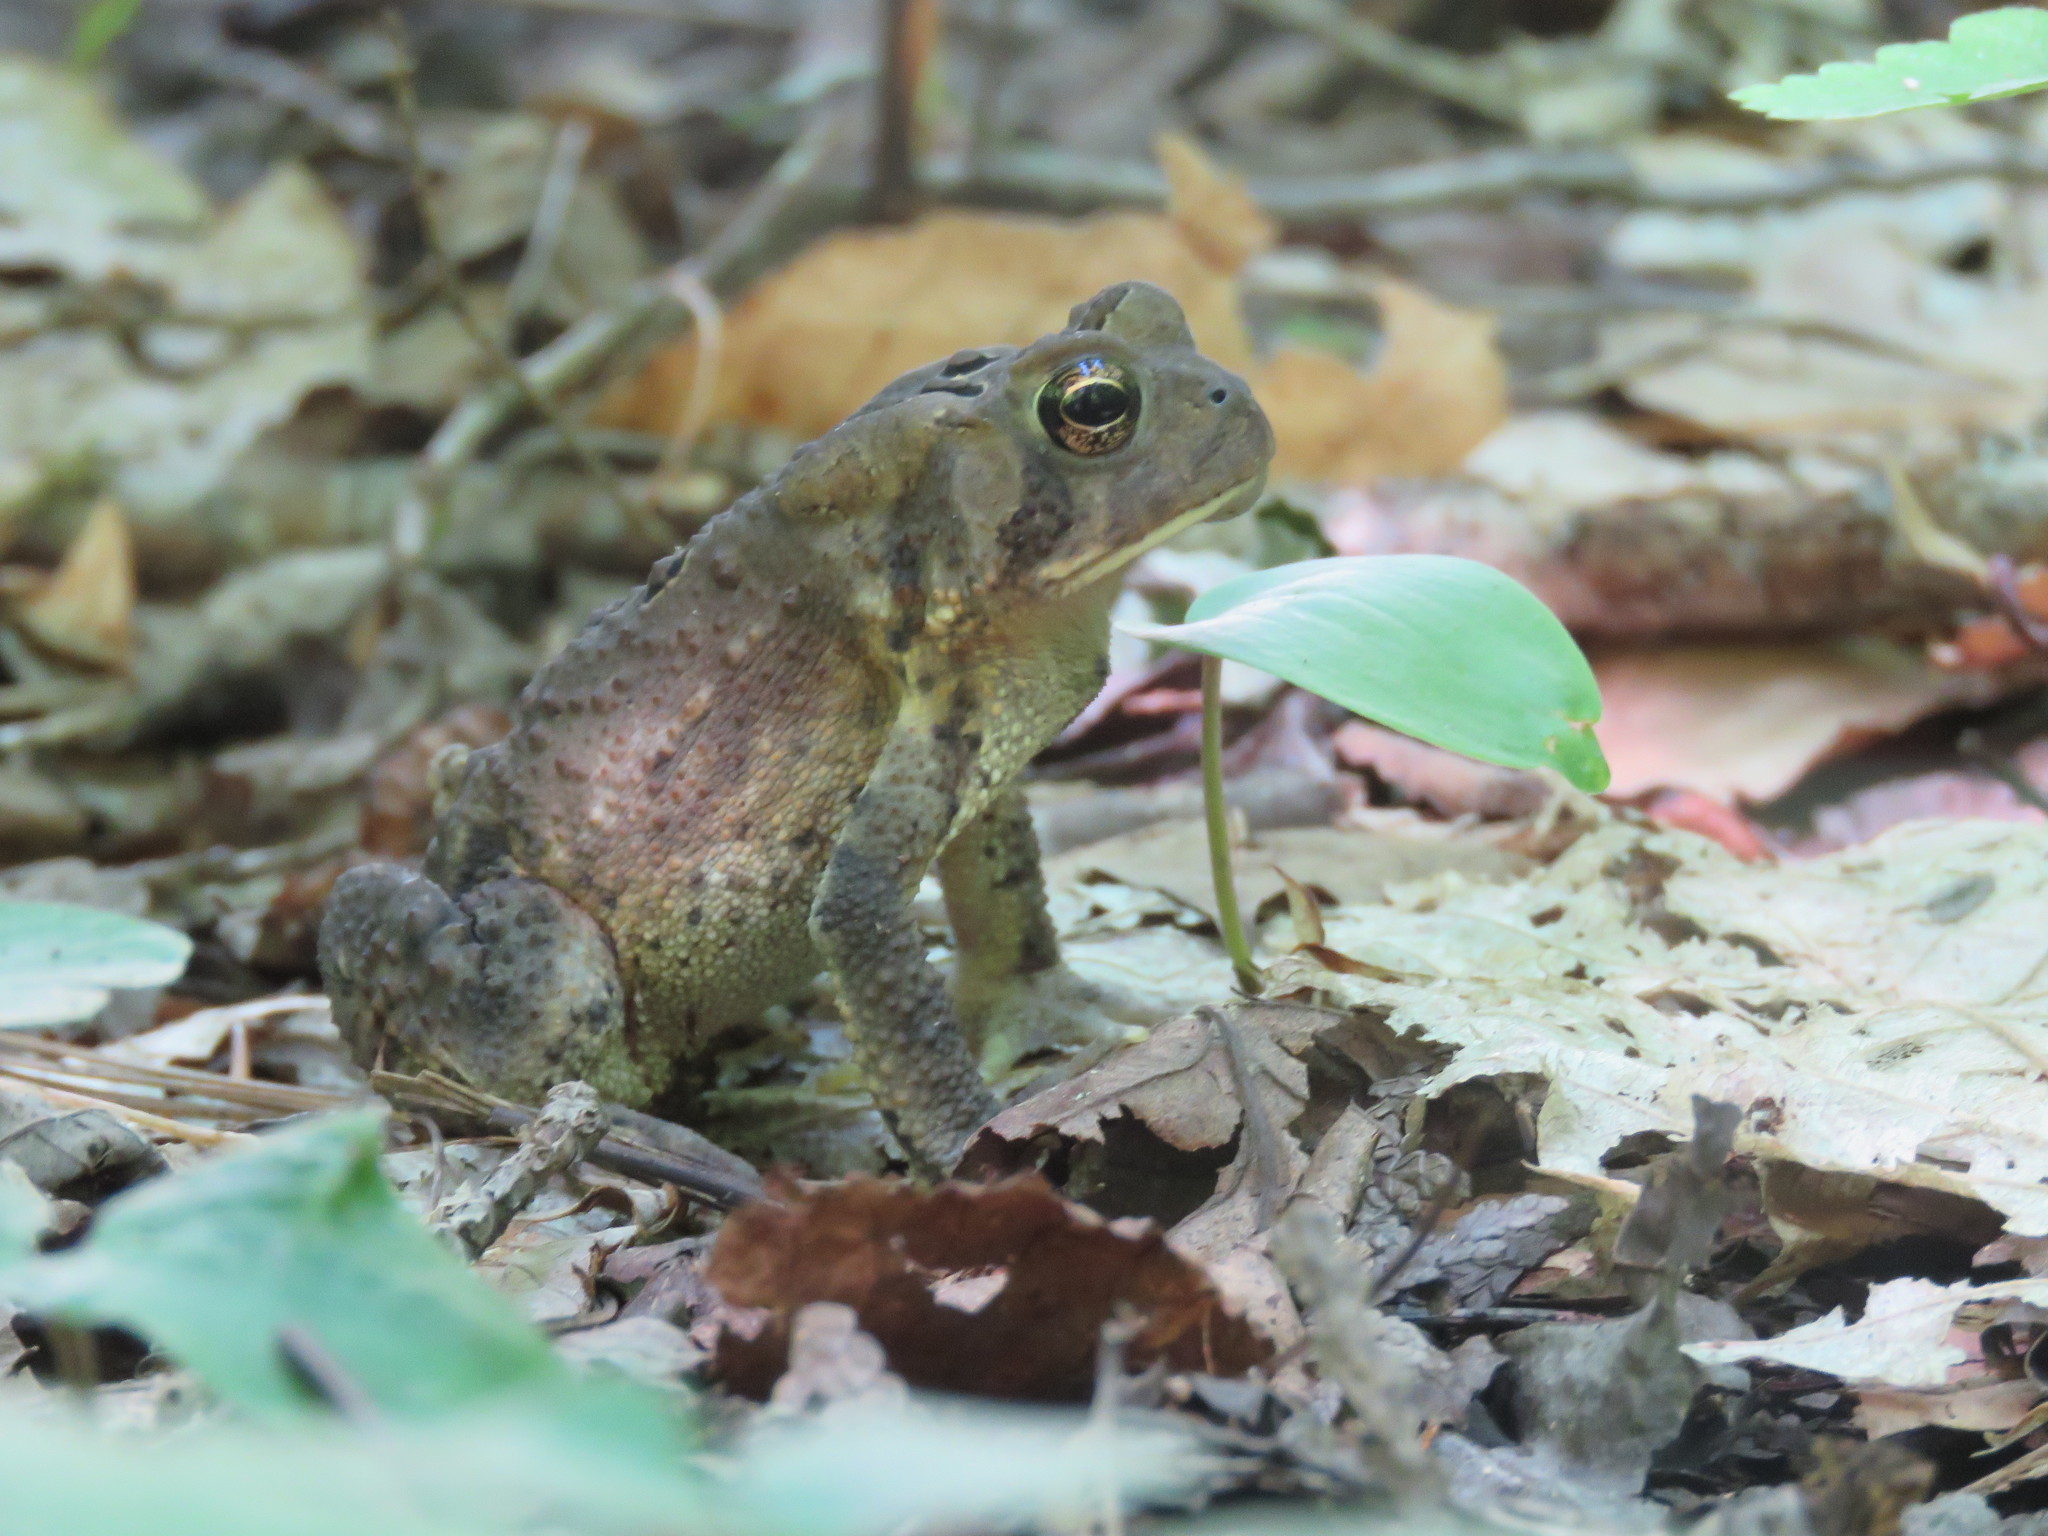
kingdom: Animalia
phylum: Chordata
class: Amphibia
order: Anura
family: Bufonidae
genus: Anaxyrus
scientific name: Anaxyrus americanus
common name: American toad
